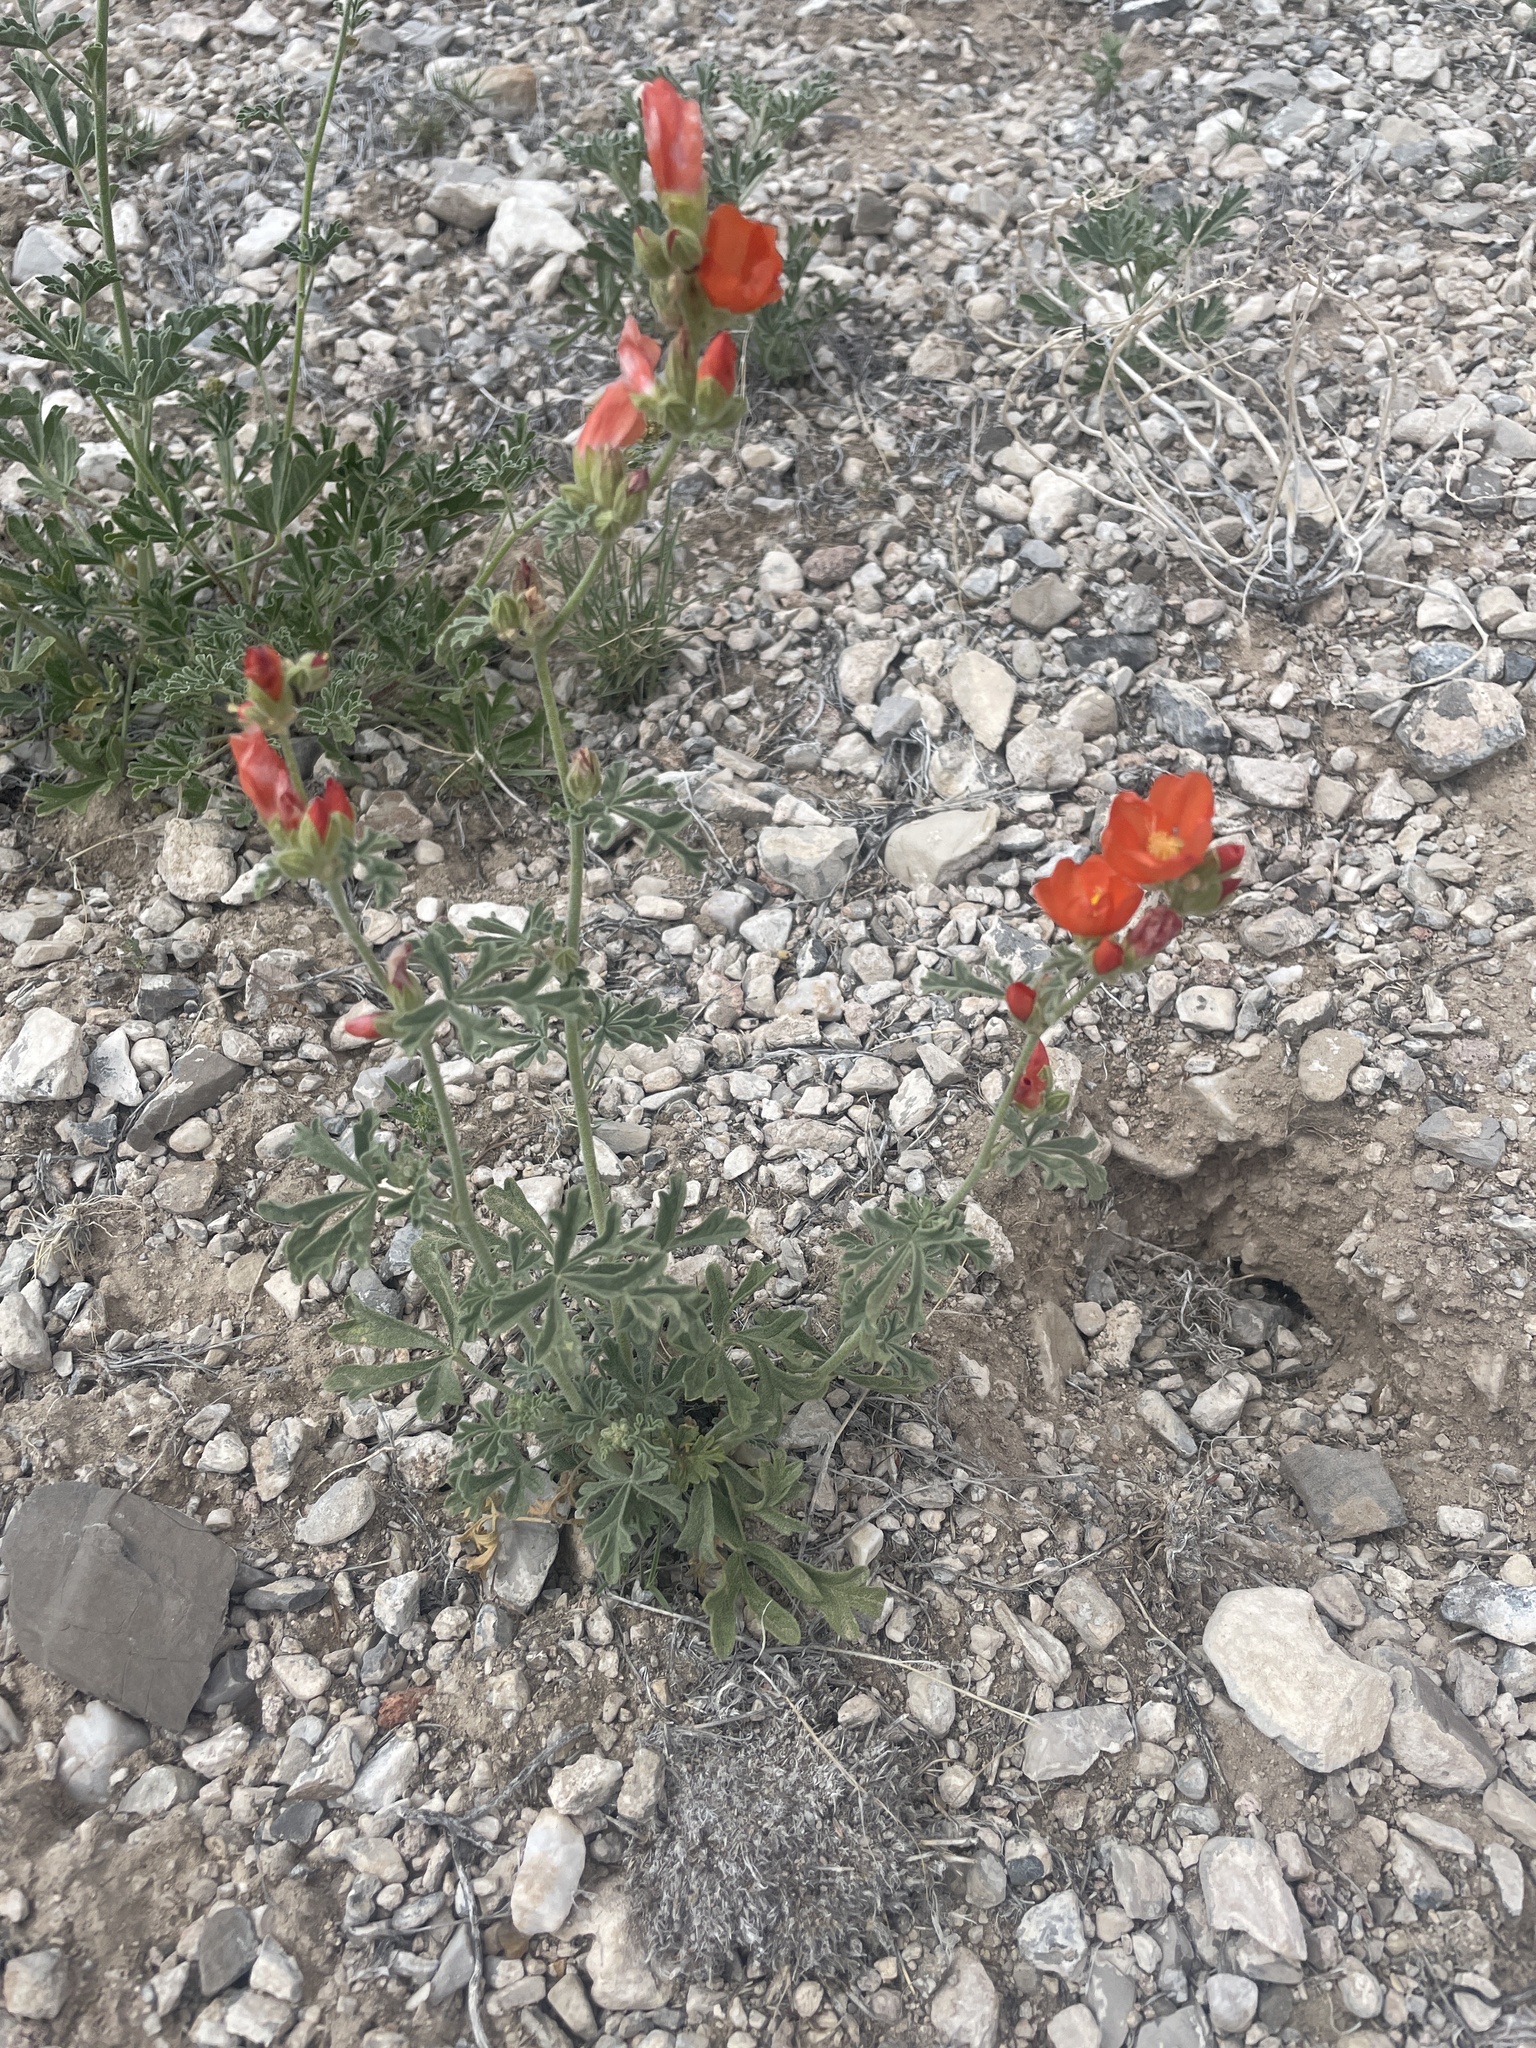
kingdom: Plantae
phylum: Tracheophyta
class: Magnoliopsida
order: Malvales
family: Malvaceae
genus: Sphaeralcea
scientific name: Sphaeralcea grossulariifolia
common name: Current-leaf globe-mallow
